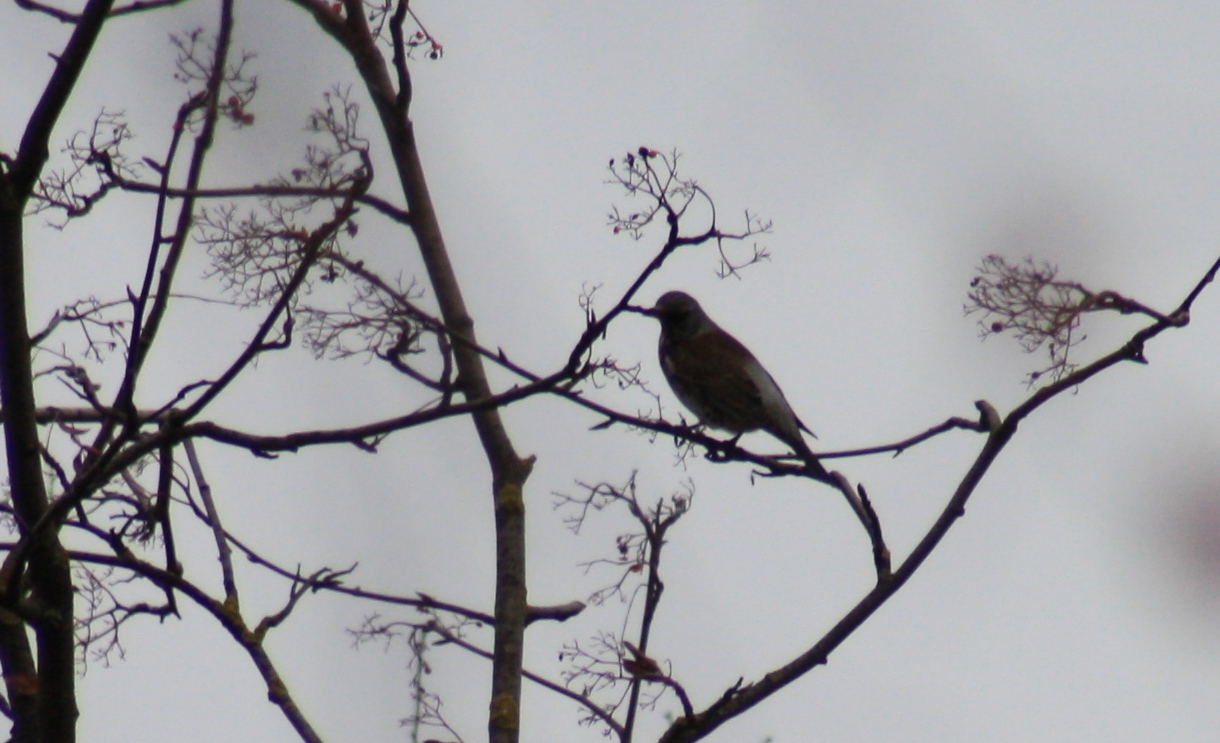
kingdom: Animalia
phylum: Chordata
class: Aves
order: Passeriformes
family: Turdidae
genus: Turdus
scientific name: Turdus pilaris
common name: Fieldfare
